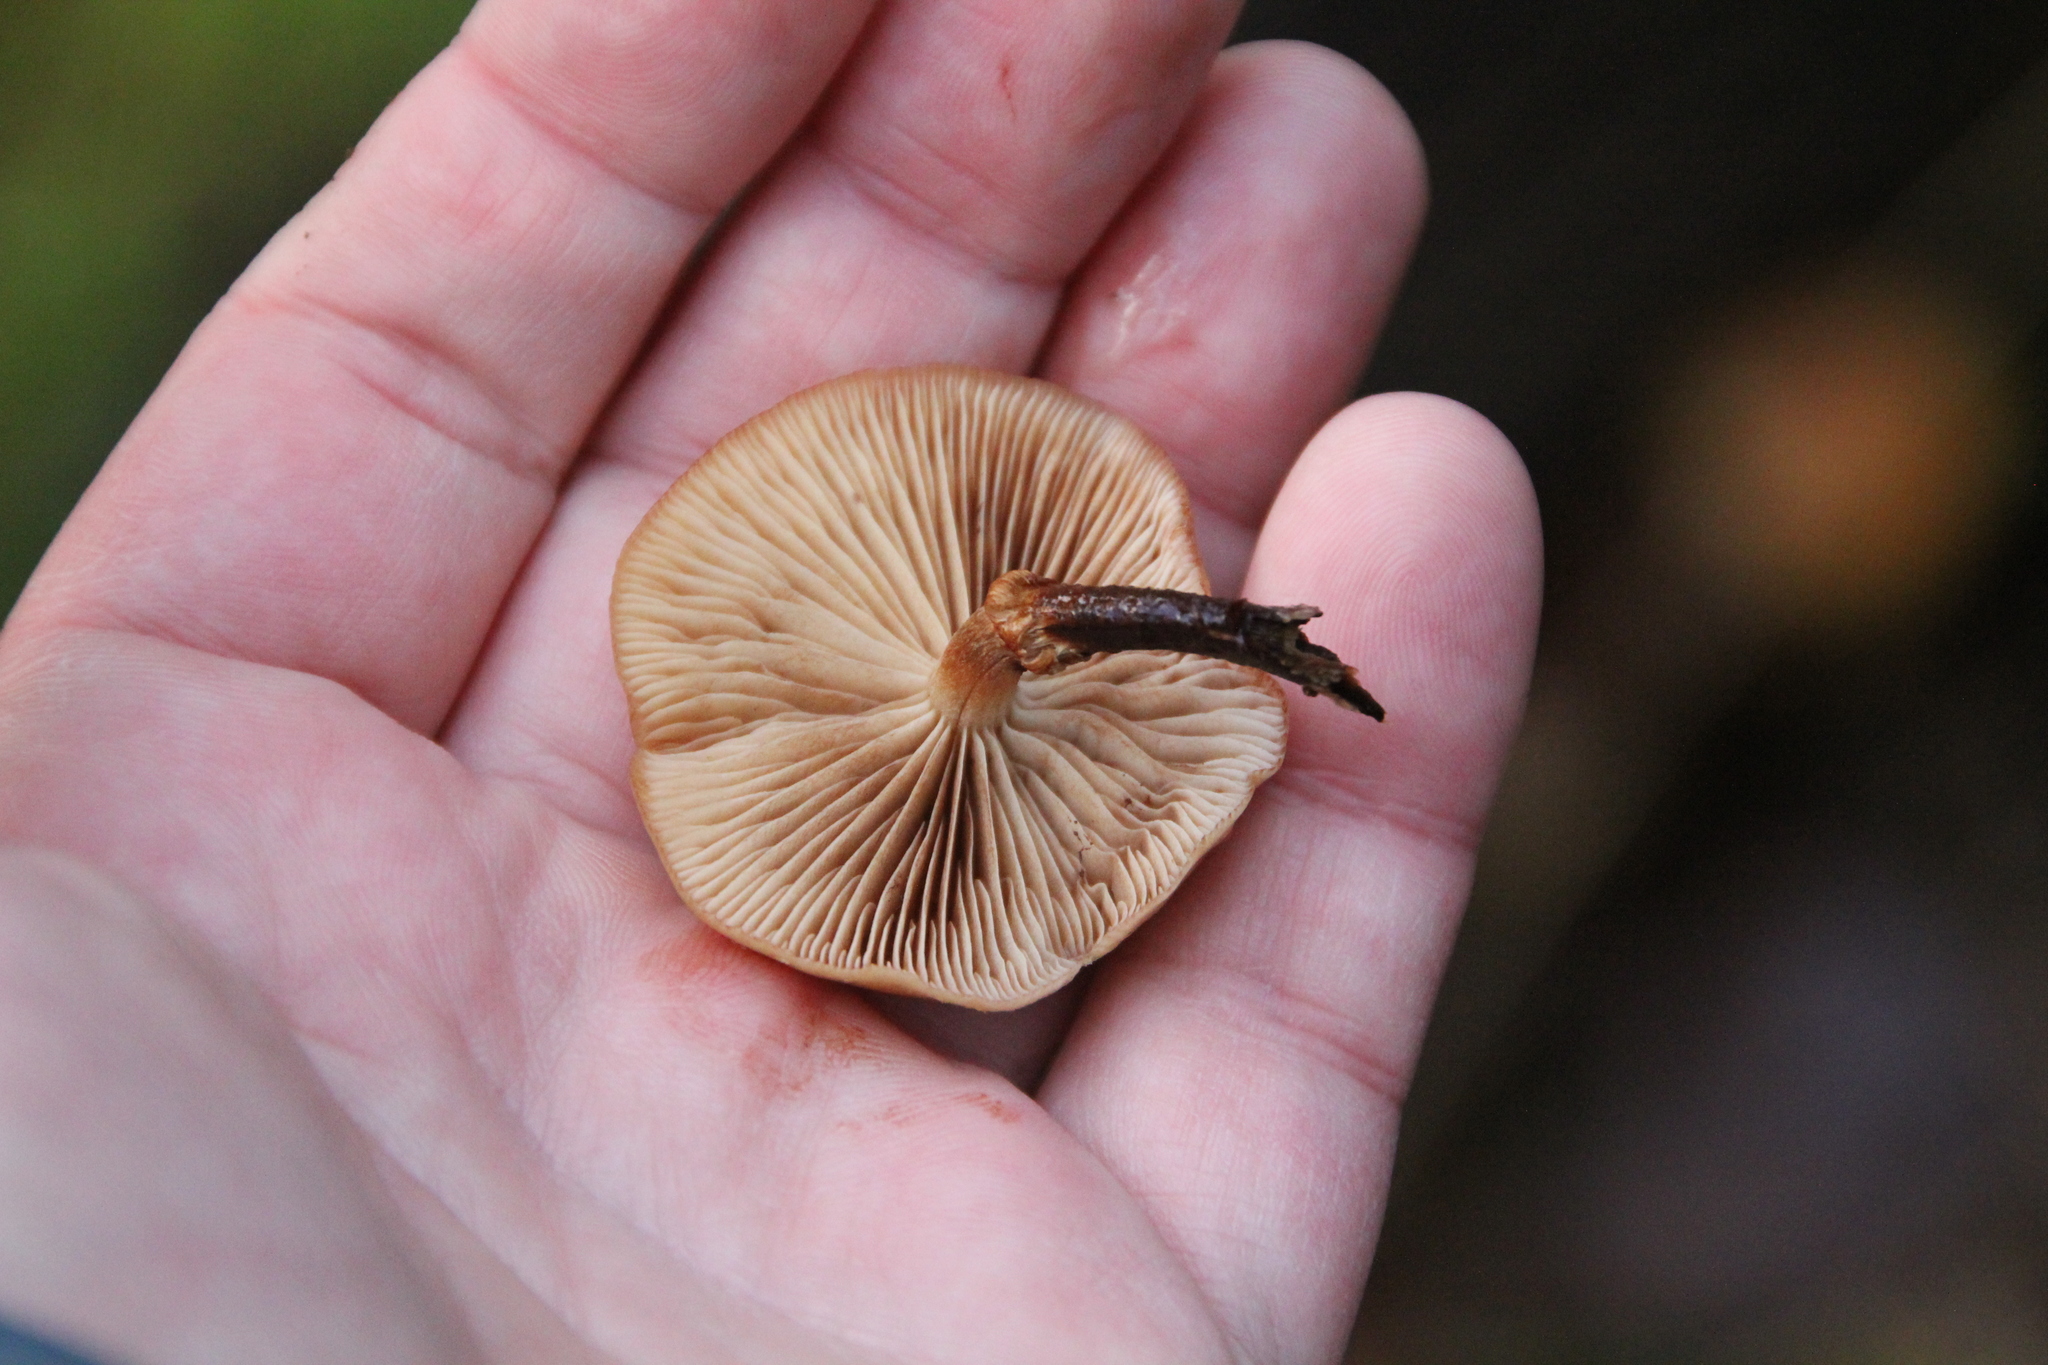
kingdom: Fungi
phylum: Basidiomycota
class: Agaricomycetes
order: Agaricales
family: Physalacriaceae
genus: Flammulina
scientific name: Flammulina
